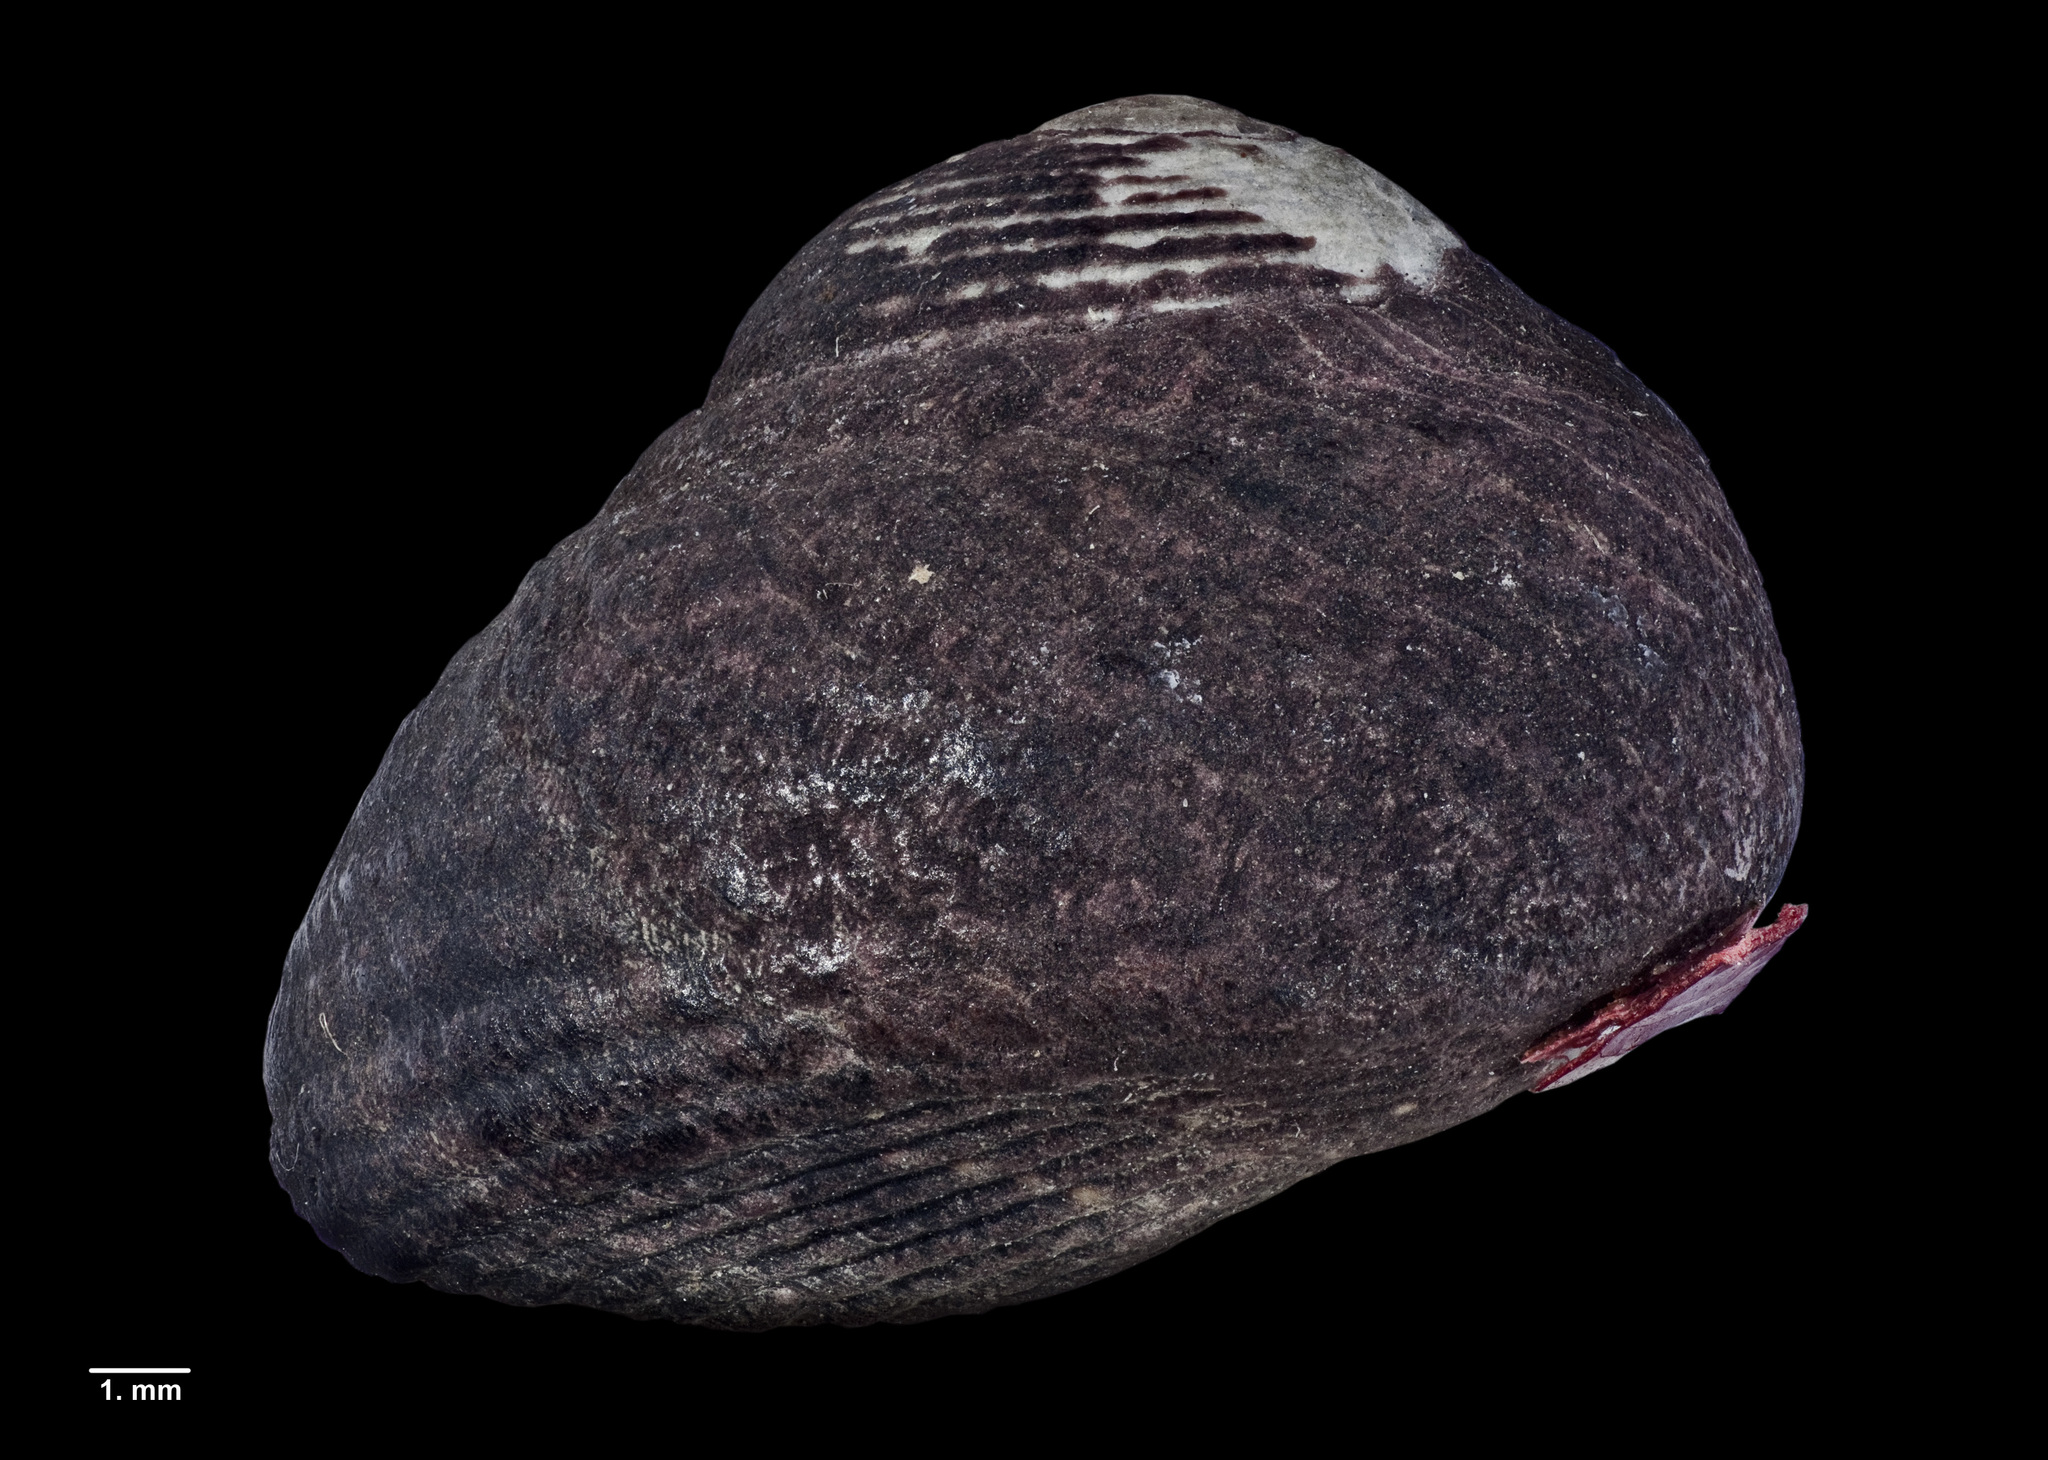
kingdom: Animalia
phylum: Mollusca
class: Gastropoda
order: Trochida
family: Trochidae
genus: Diloma
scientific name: Diloma aridum
